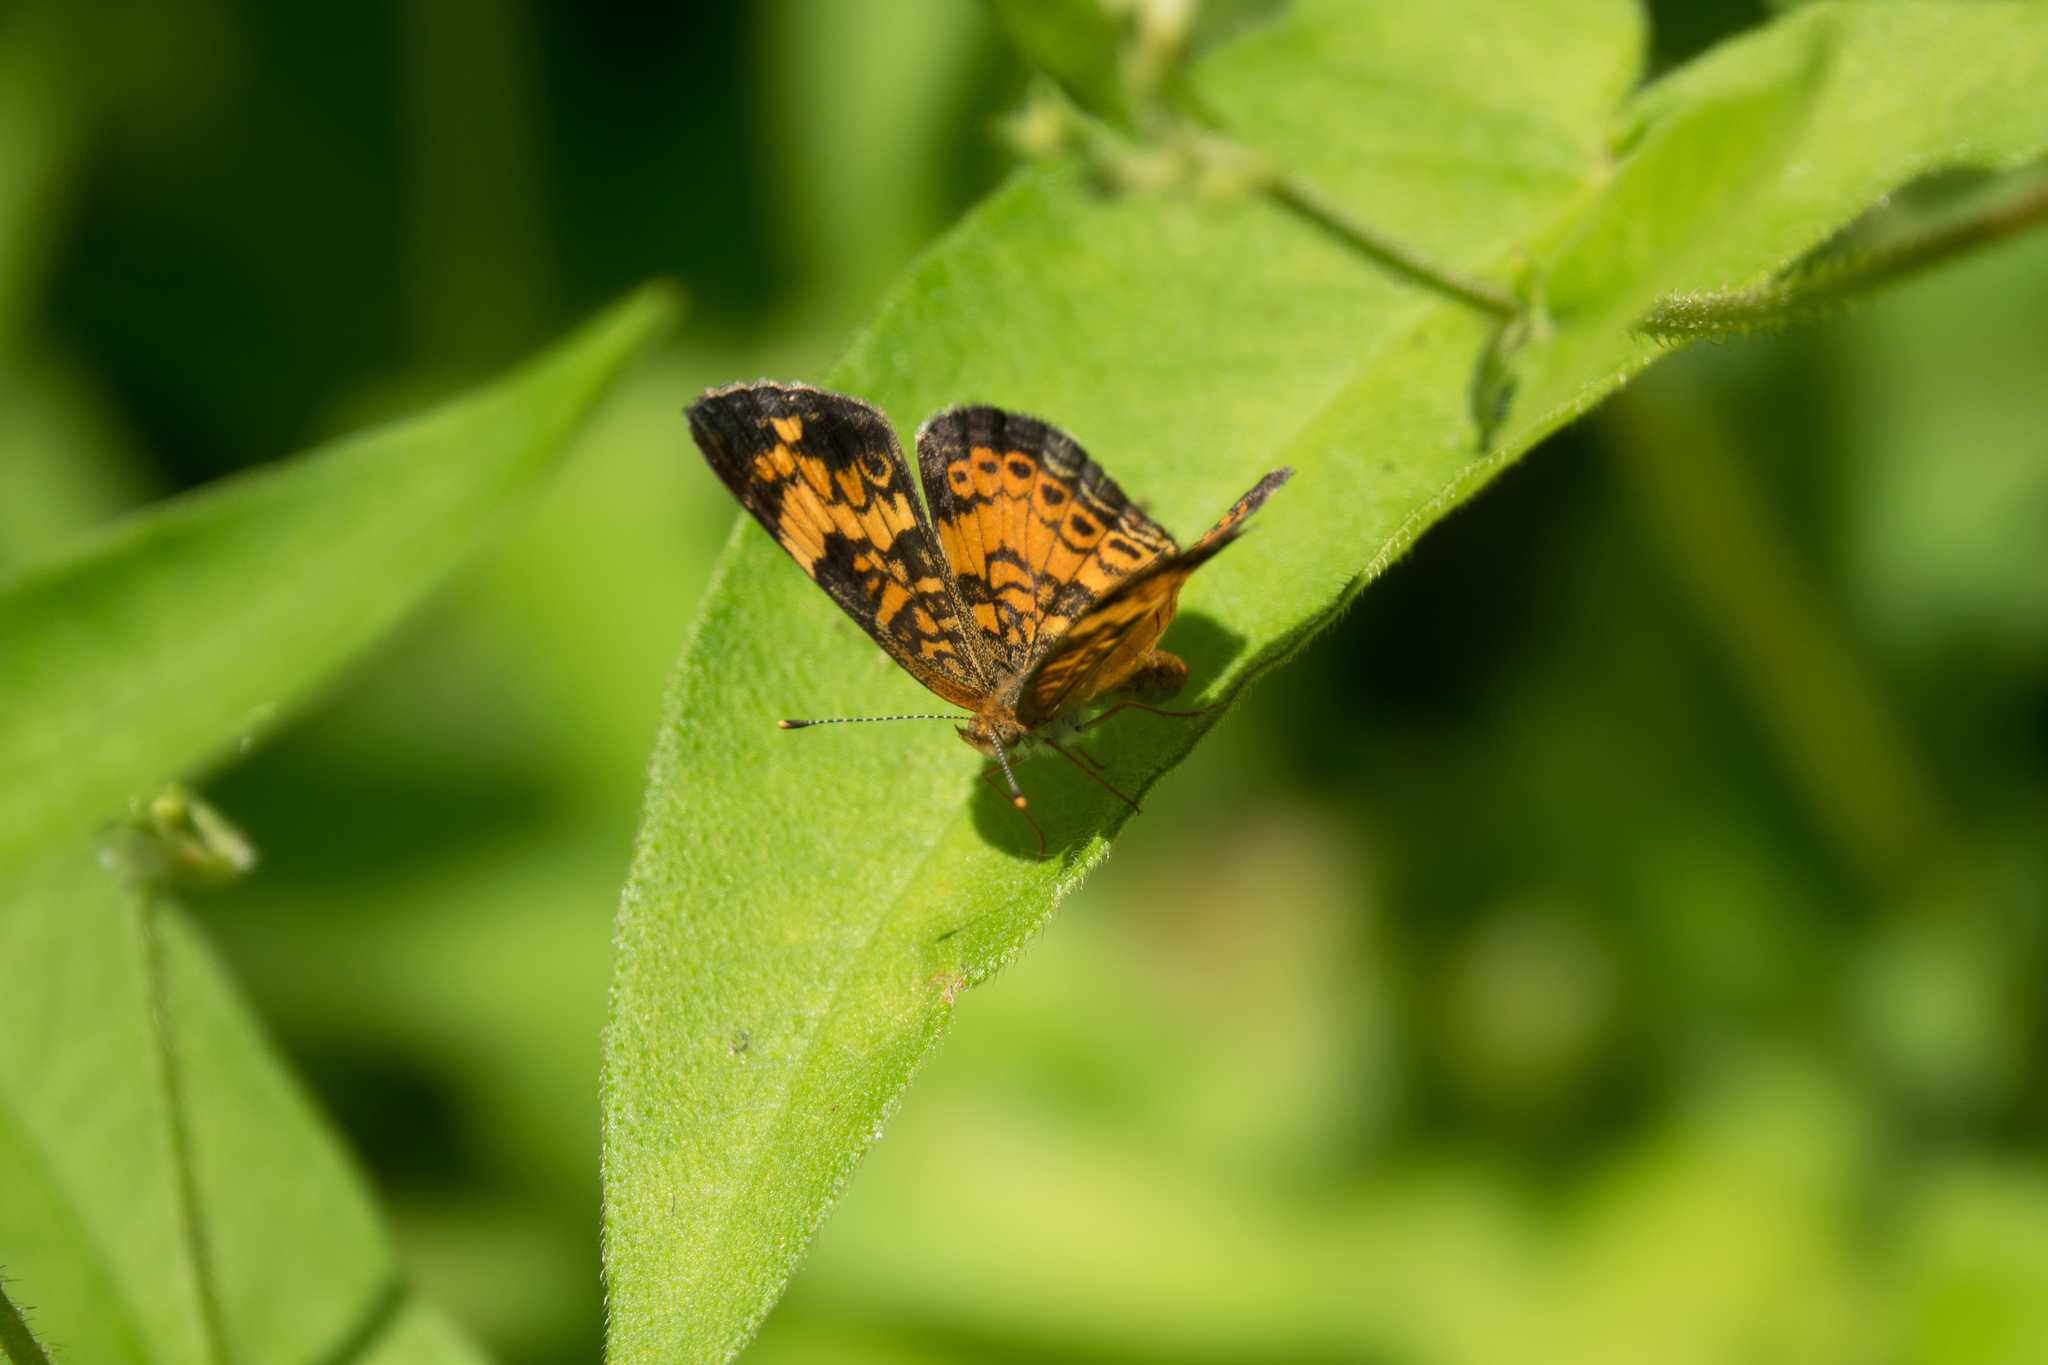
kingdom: Animalia
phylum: Arthropoda
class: Insecta
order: Lepidoptera
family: Nymphalidae
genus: Phyciodes
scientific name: Phyciodes tharos
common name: Pearl crescent
